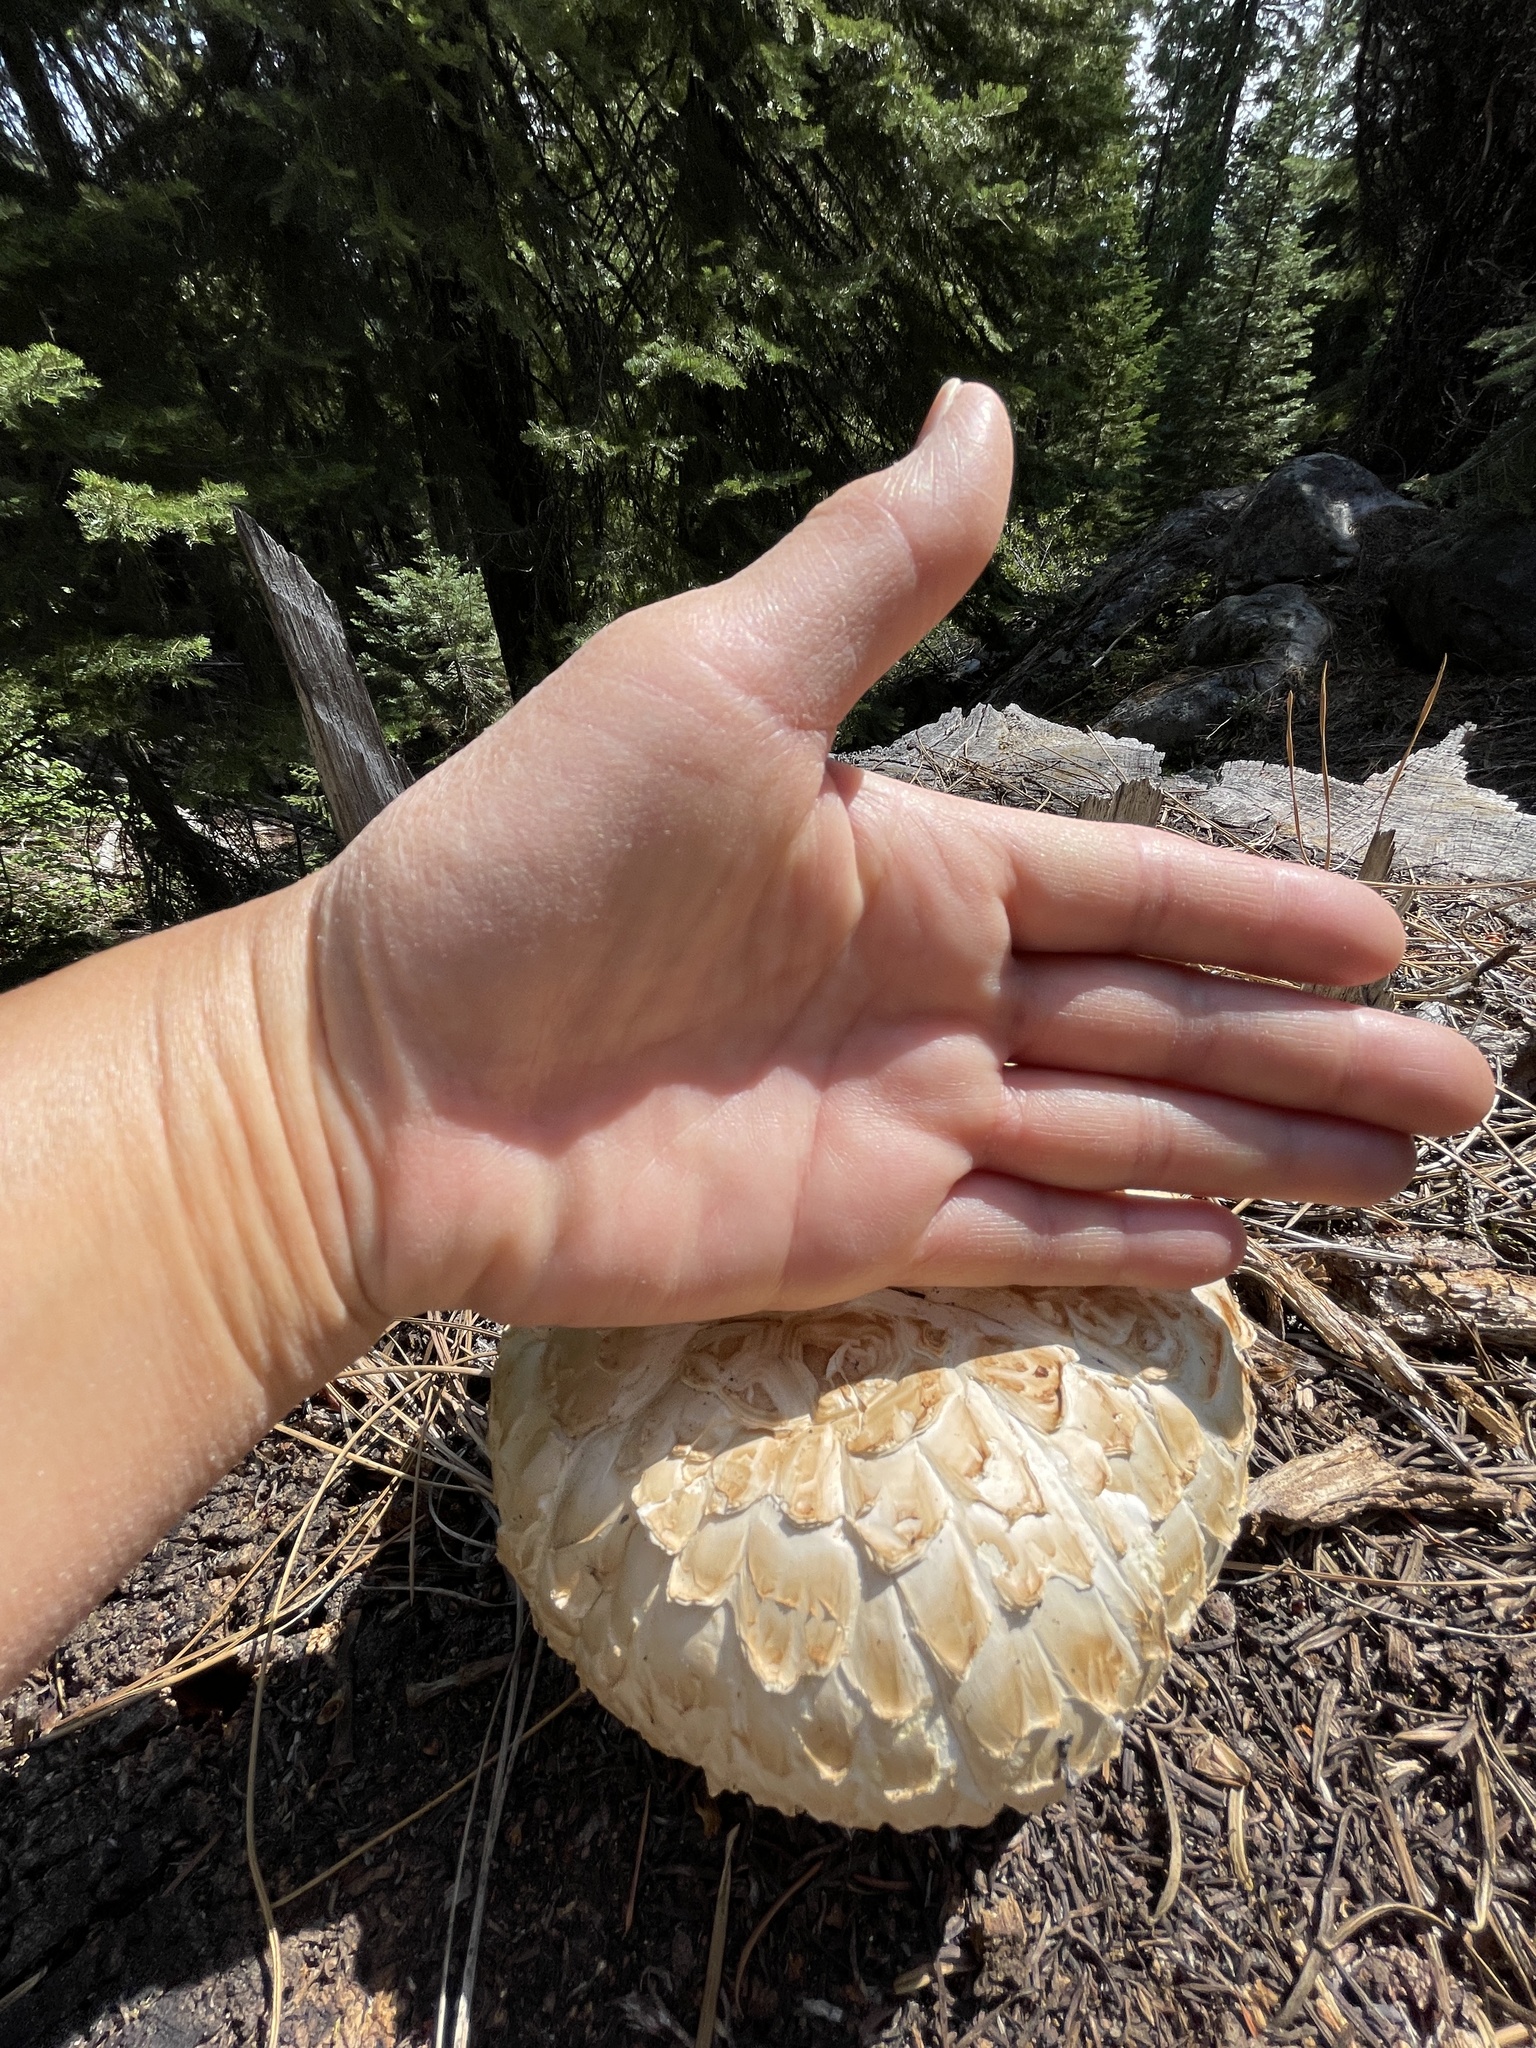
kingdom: Fungi
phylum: Basidiomycota
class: Agaricomycetes
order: Gloeophyllales
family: Gloeophyllaceae
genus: Neolentinus
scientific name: Neolentinus ponderosus
